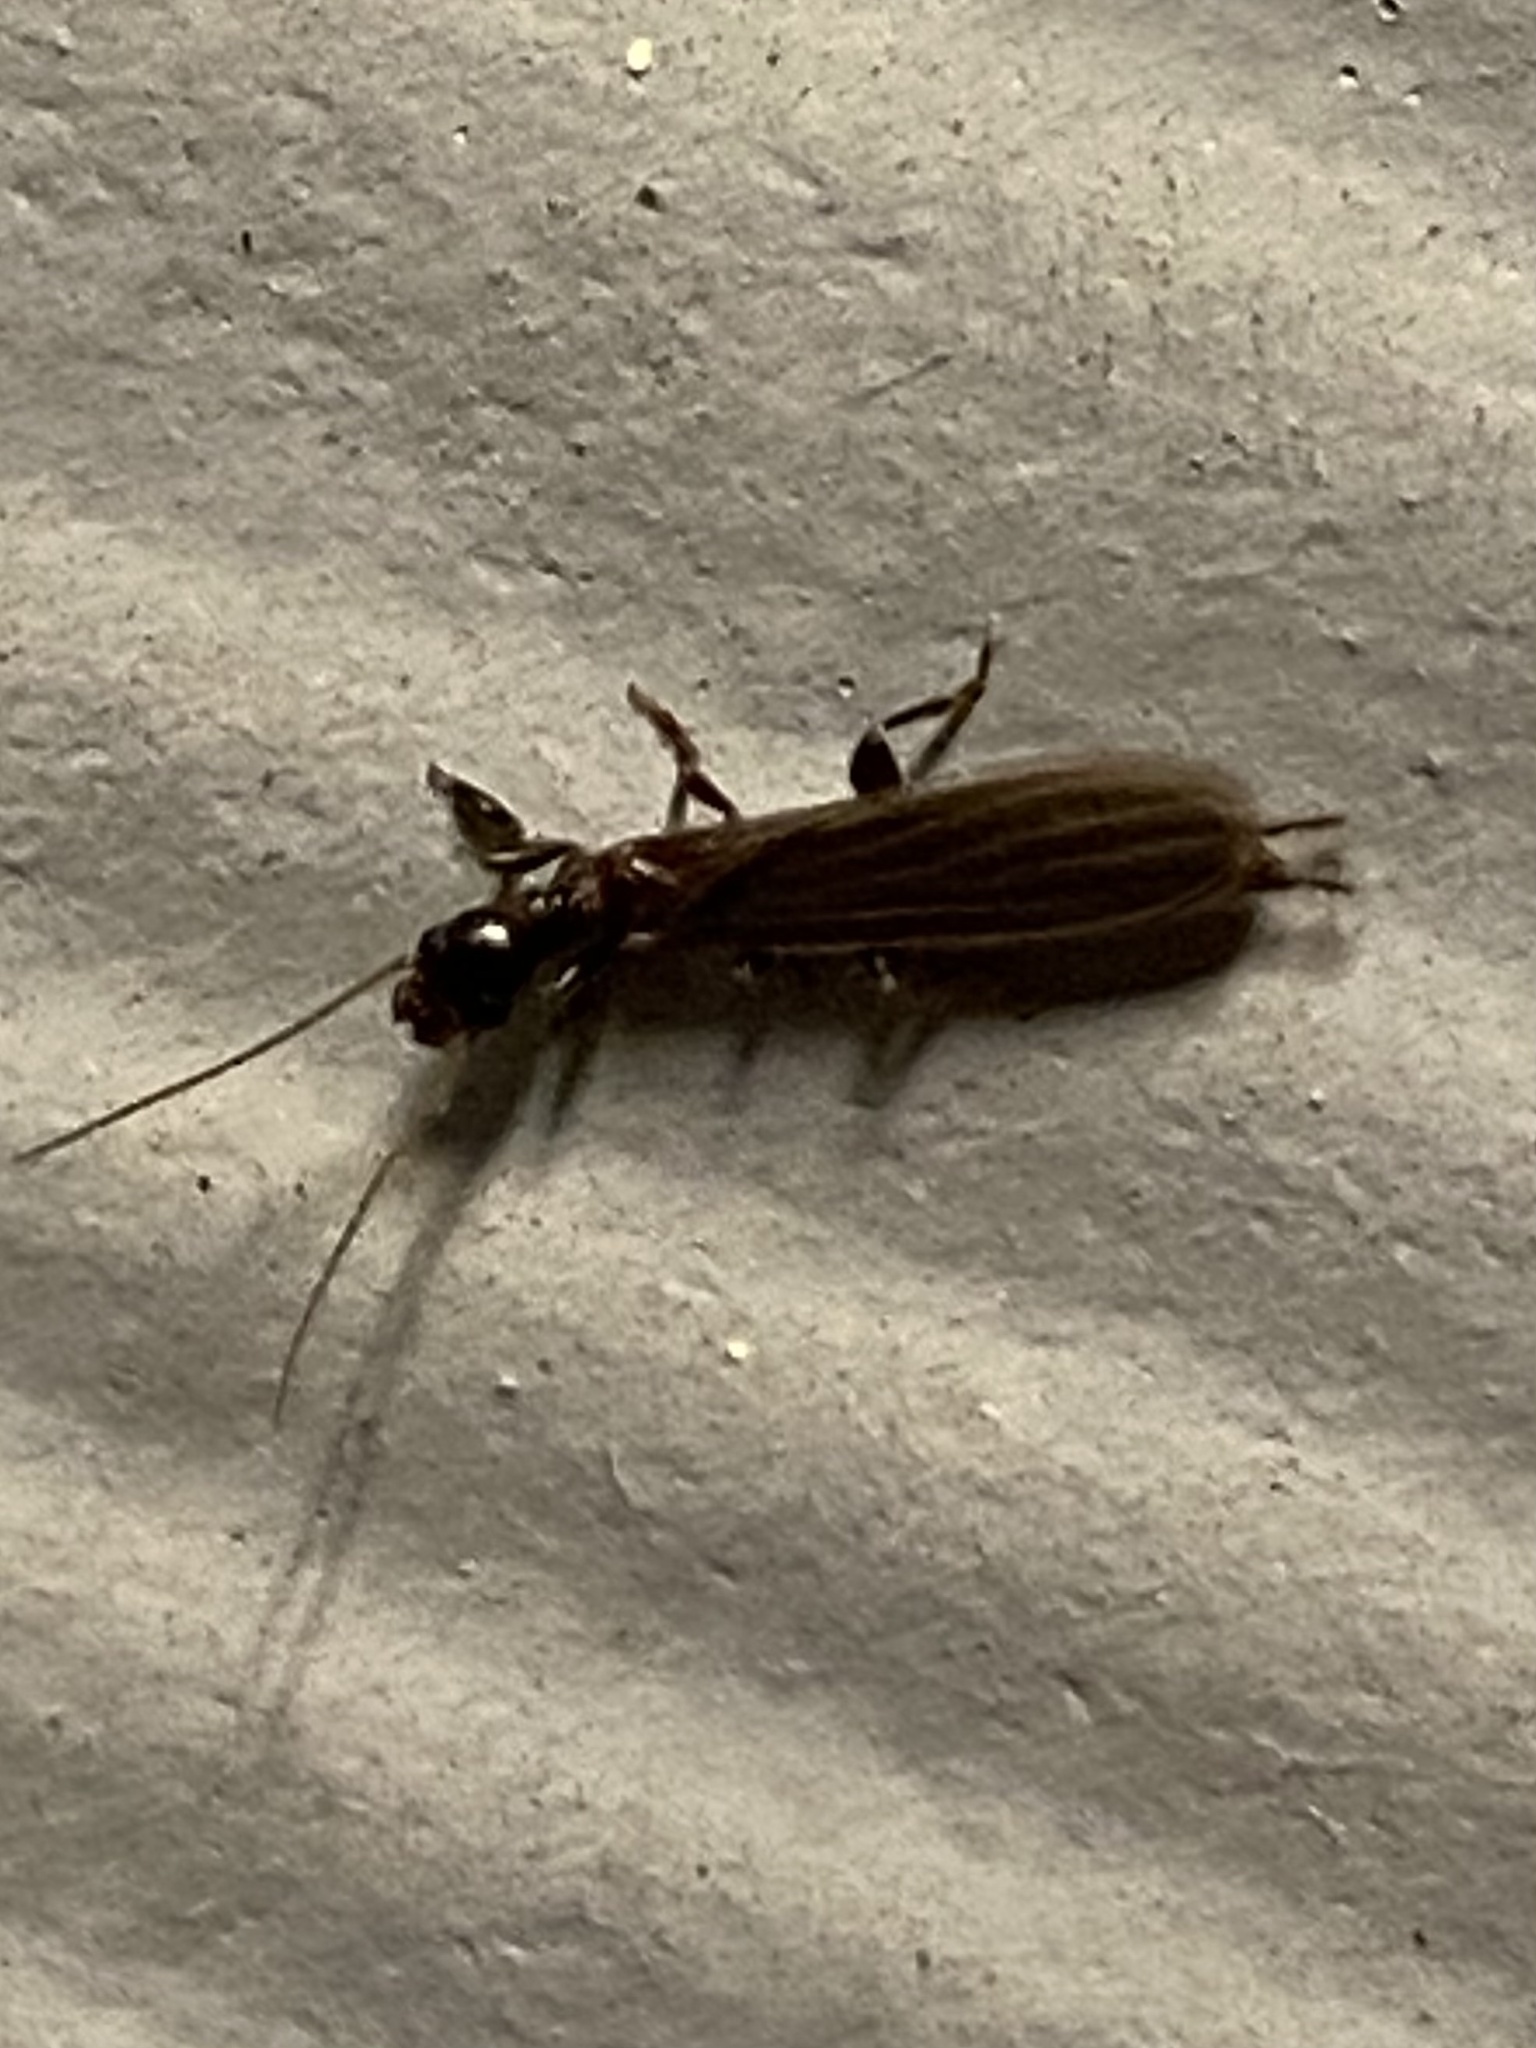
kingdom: Animalia
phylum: Arthropoda
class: Insecta
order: Embioptera
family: Oligotomidae
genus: Oligotoma
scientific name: Oligotoma nigra
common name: Black webspinner
